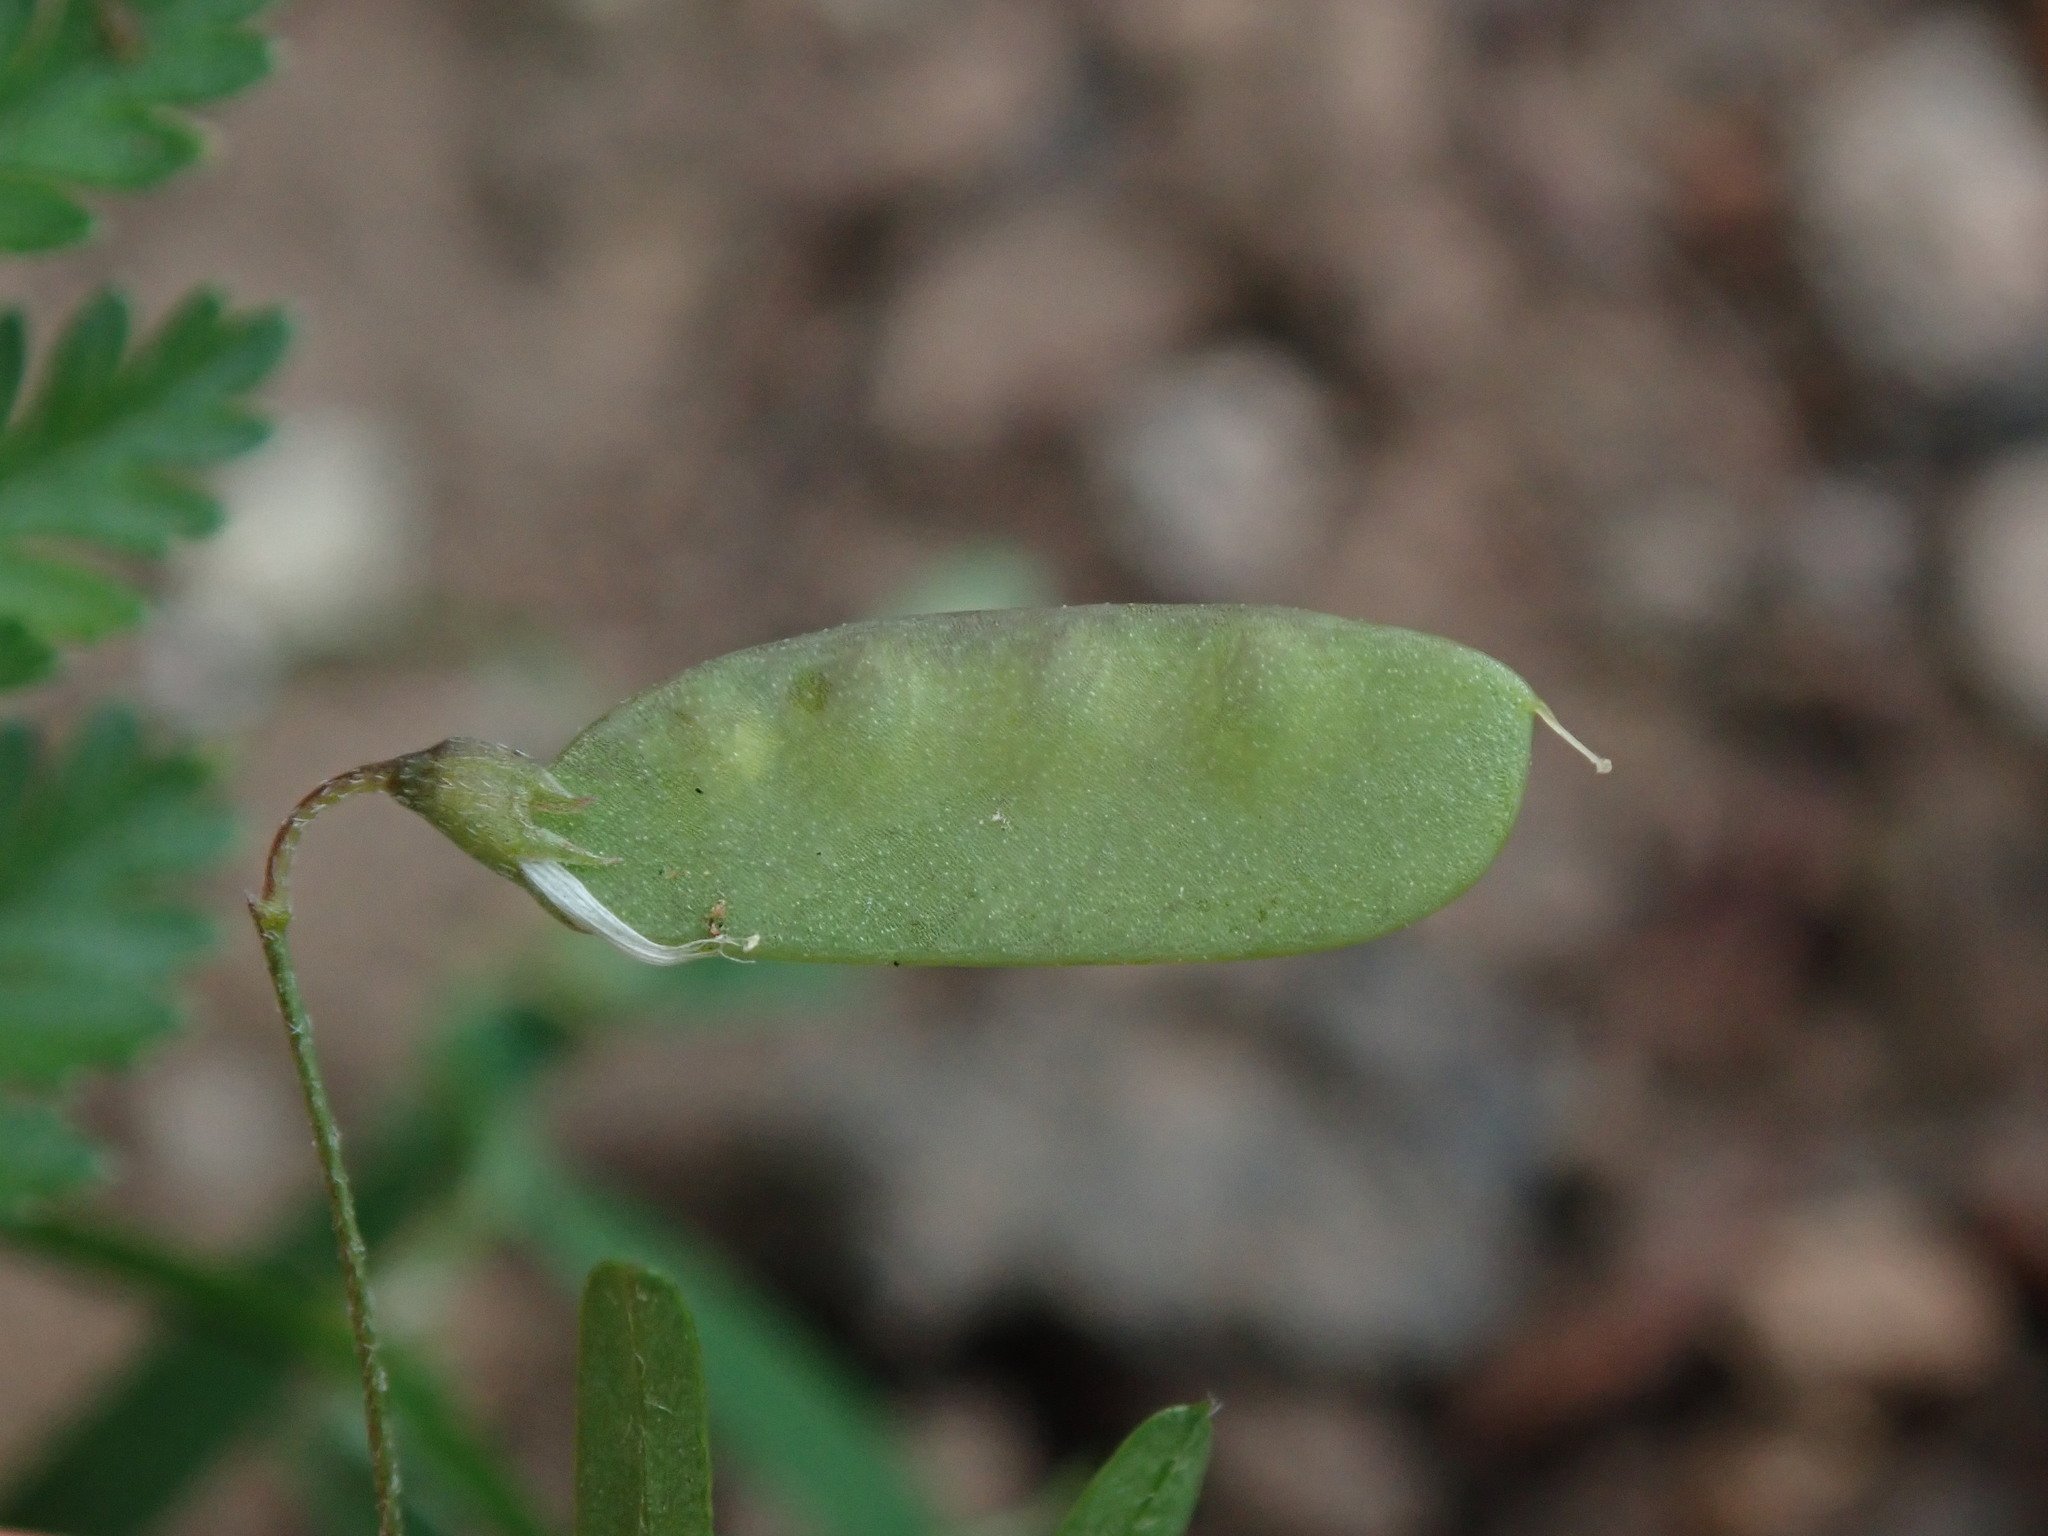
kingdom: Plantae
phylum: Tracheophyta
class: Magnoliopsida
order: Fabales
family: Fabaceae
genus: Vicia
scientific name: Vicia tetrasperma
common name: Smooth tare
